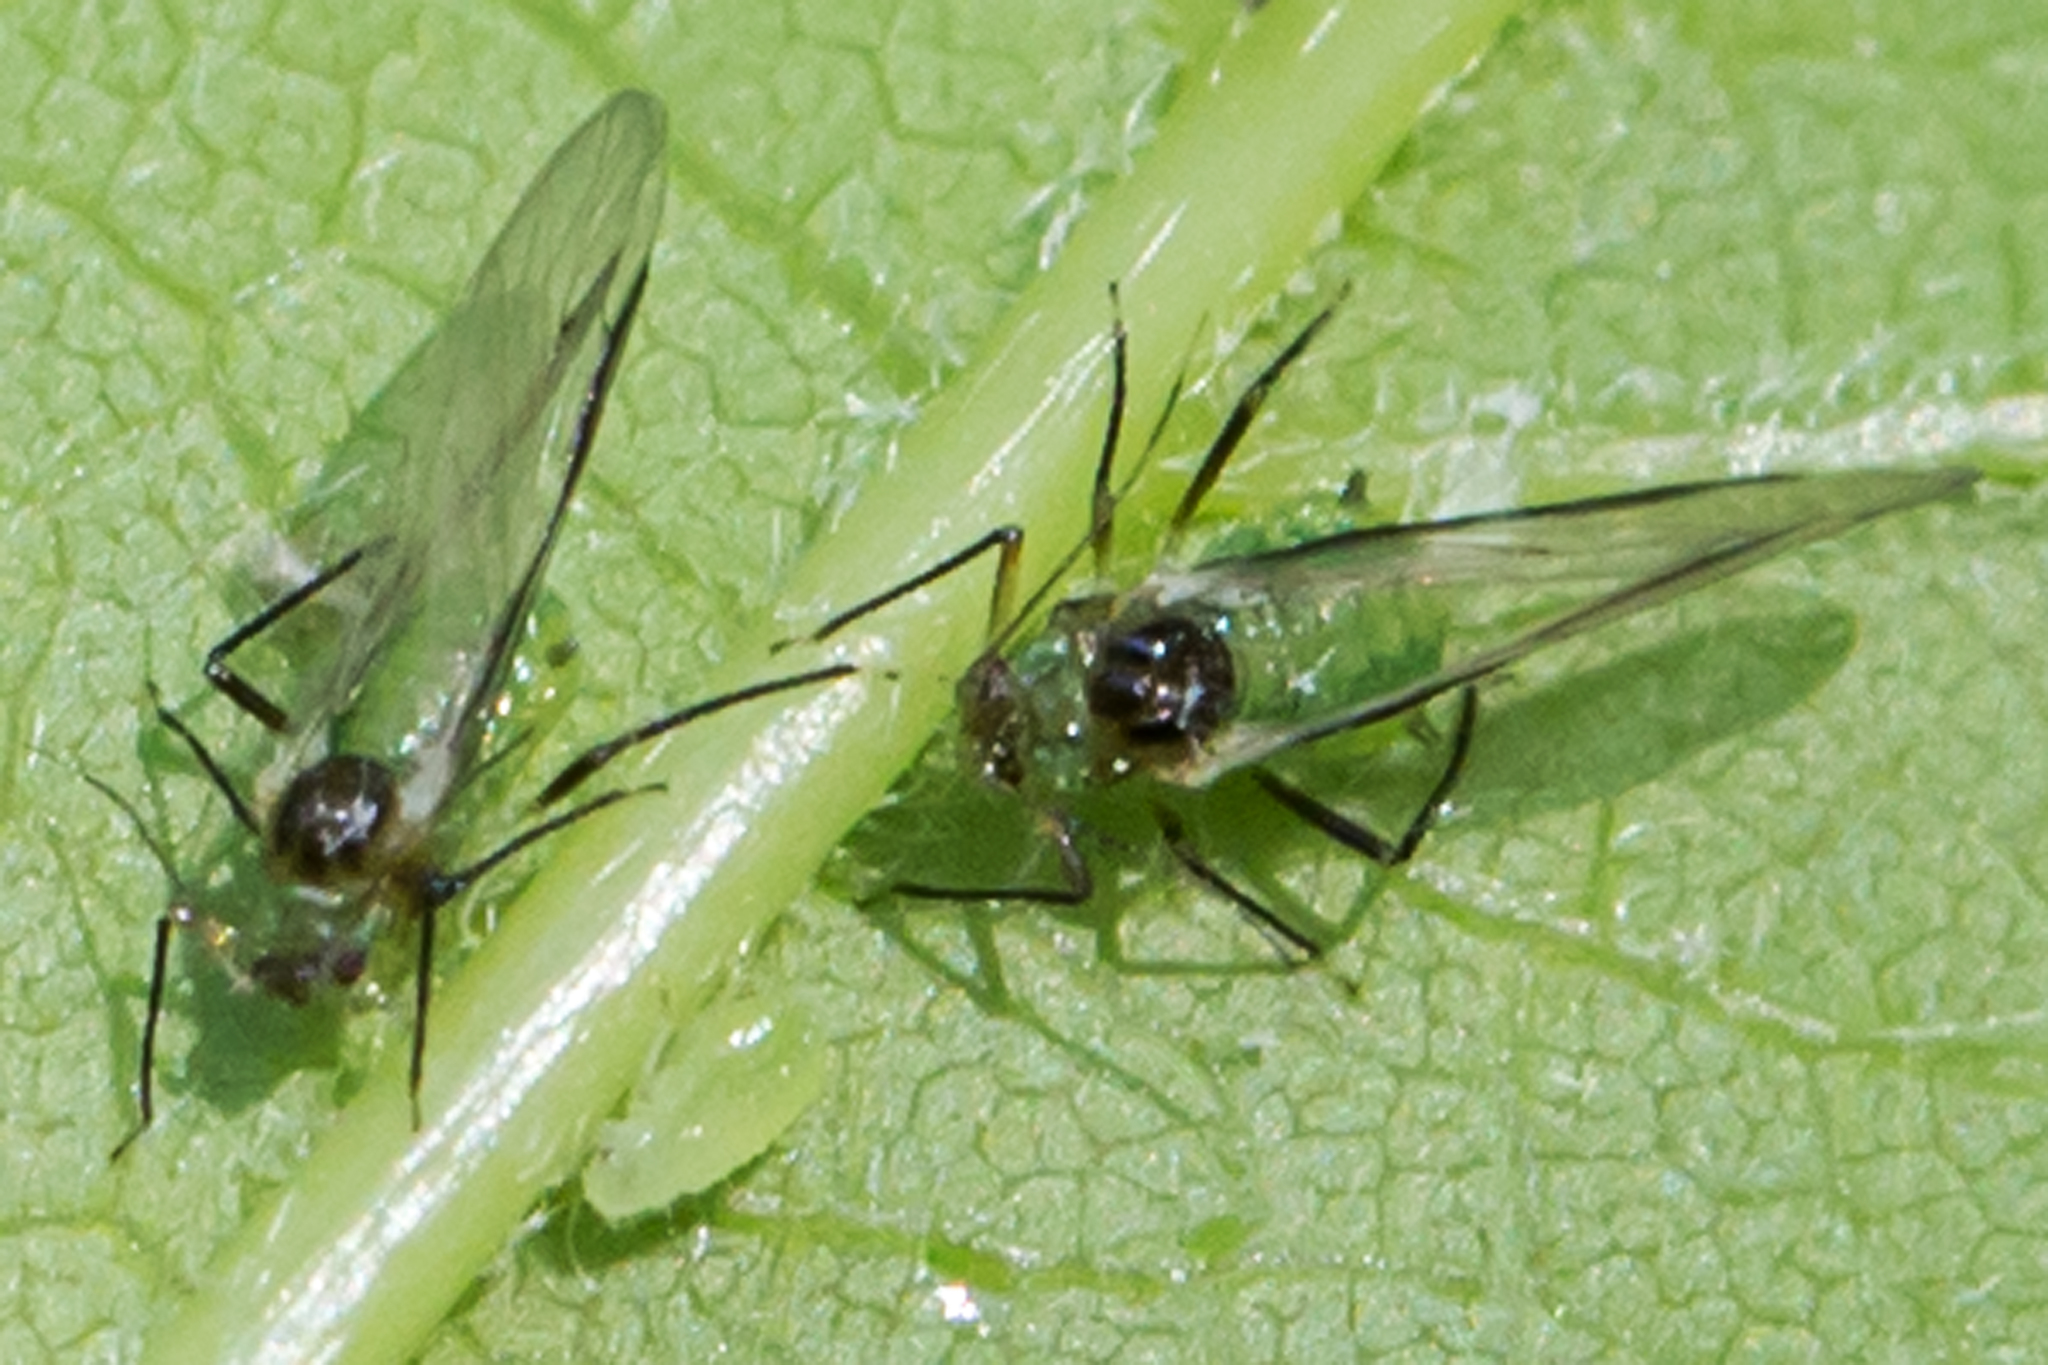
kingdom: Animalia
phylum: Arthropoda
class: Insecta
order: Hemiptera
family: Aphididae
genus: Periphyllus
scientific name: Periphyllus negundinis
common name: Boxelder aphid
